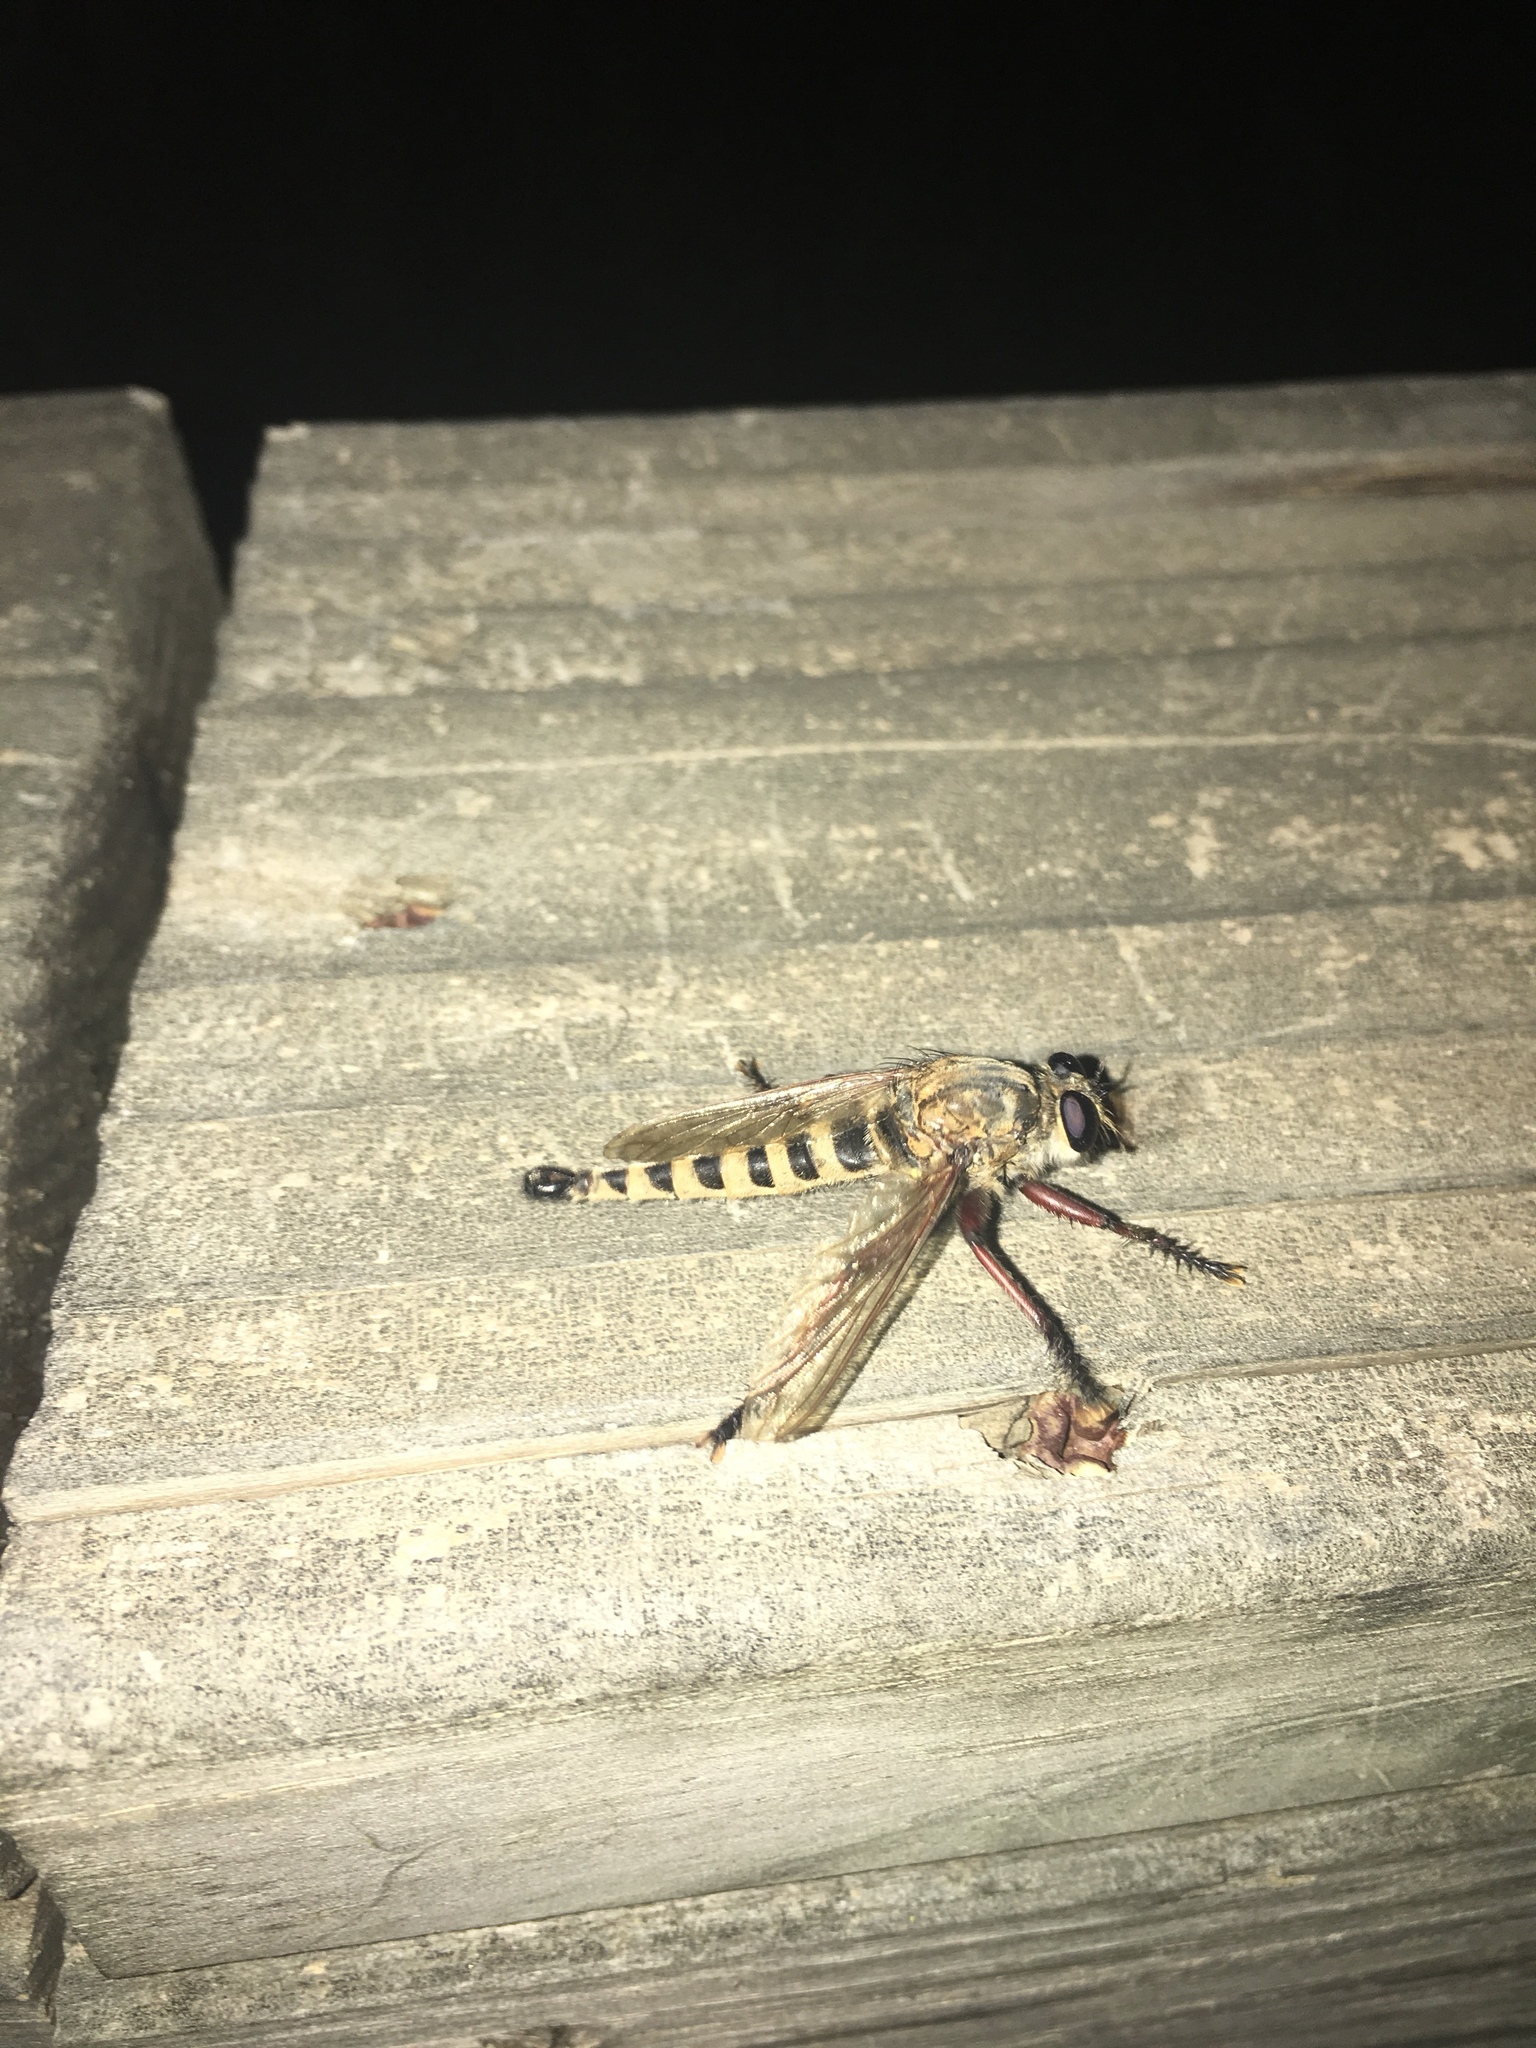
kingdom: Animalia
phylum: Arthropoda
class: Insecta
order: Diptera
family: Asilidae
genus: Promachus
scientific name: Promachus hinei
